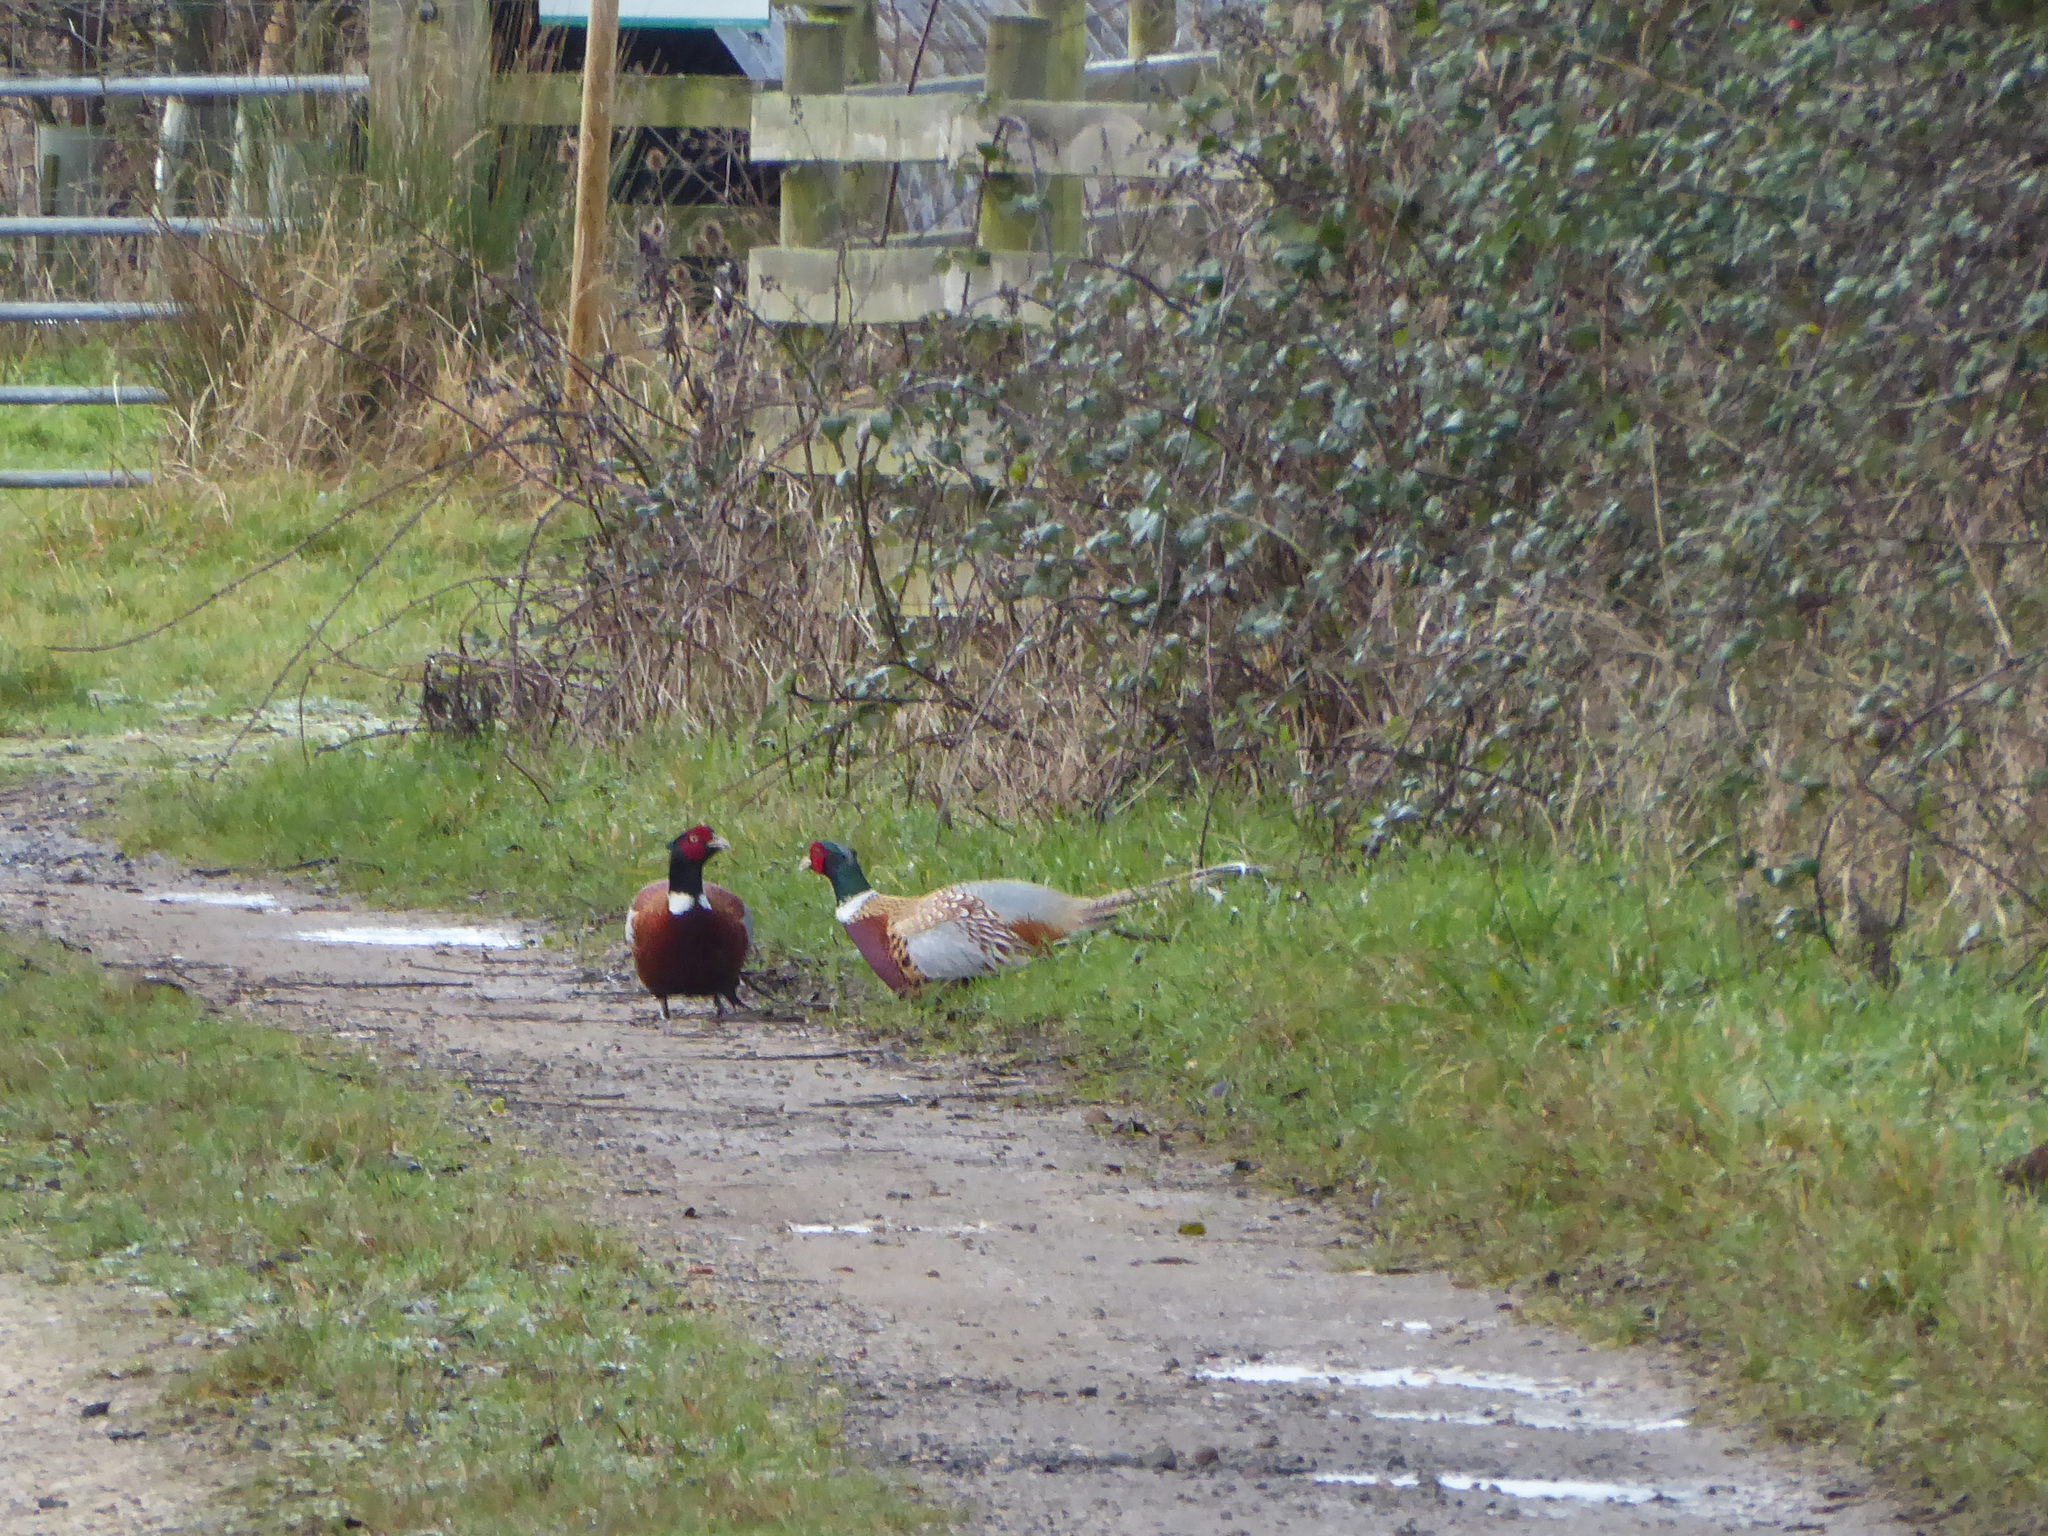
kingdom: Animalia
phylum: Chordata
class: Aves
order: Galliformes
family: Phasianidae
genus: Phasianus
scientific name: Phasianus colchicus
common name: Common pheasant
